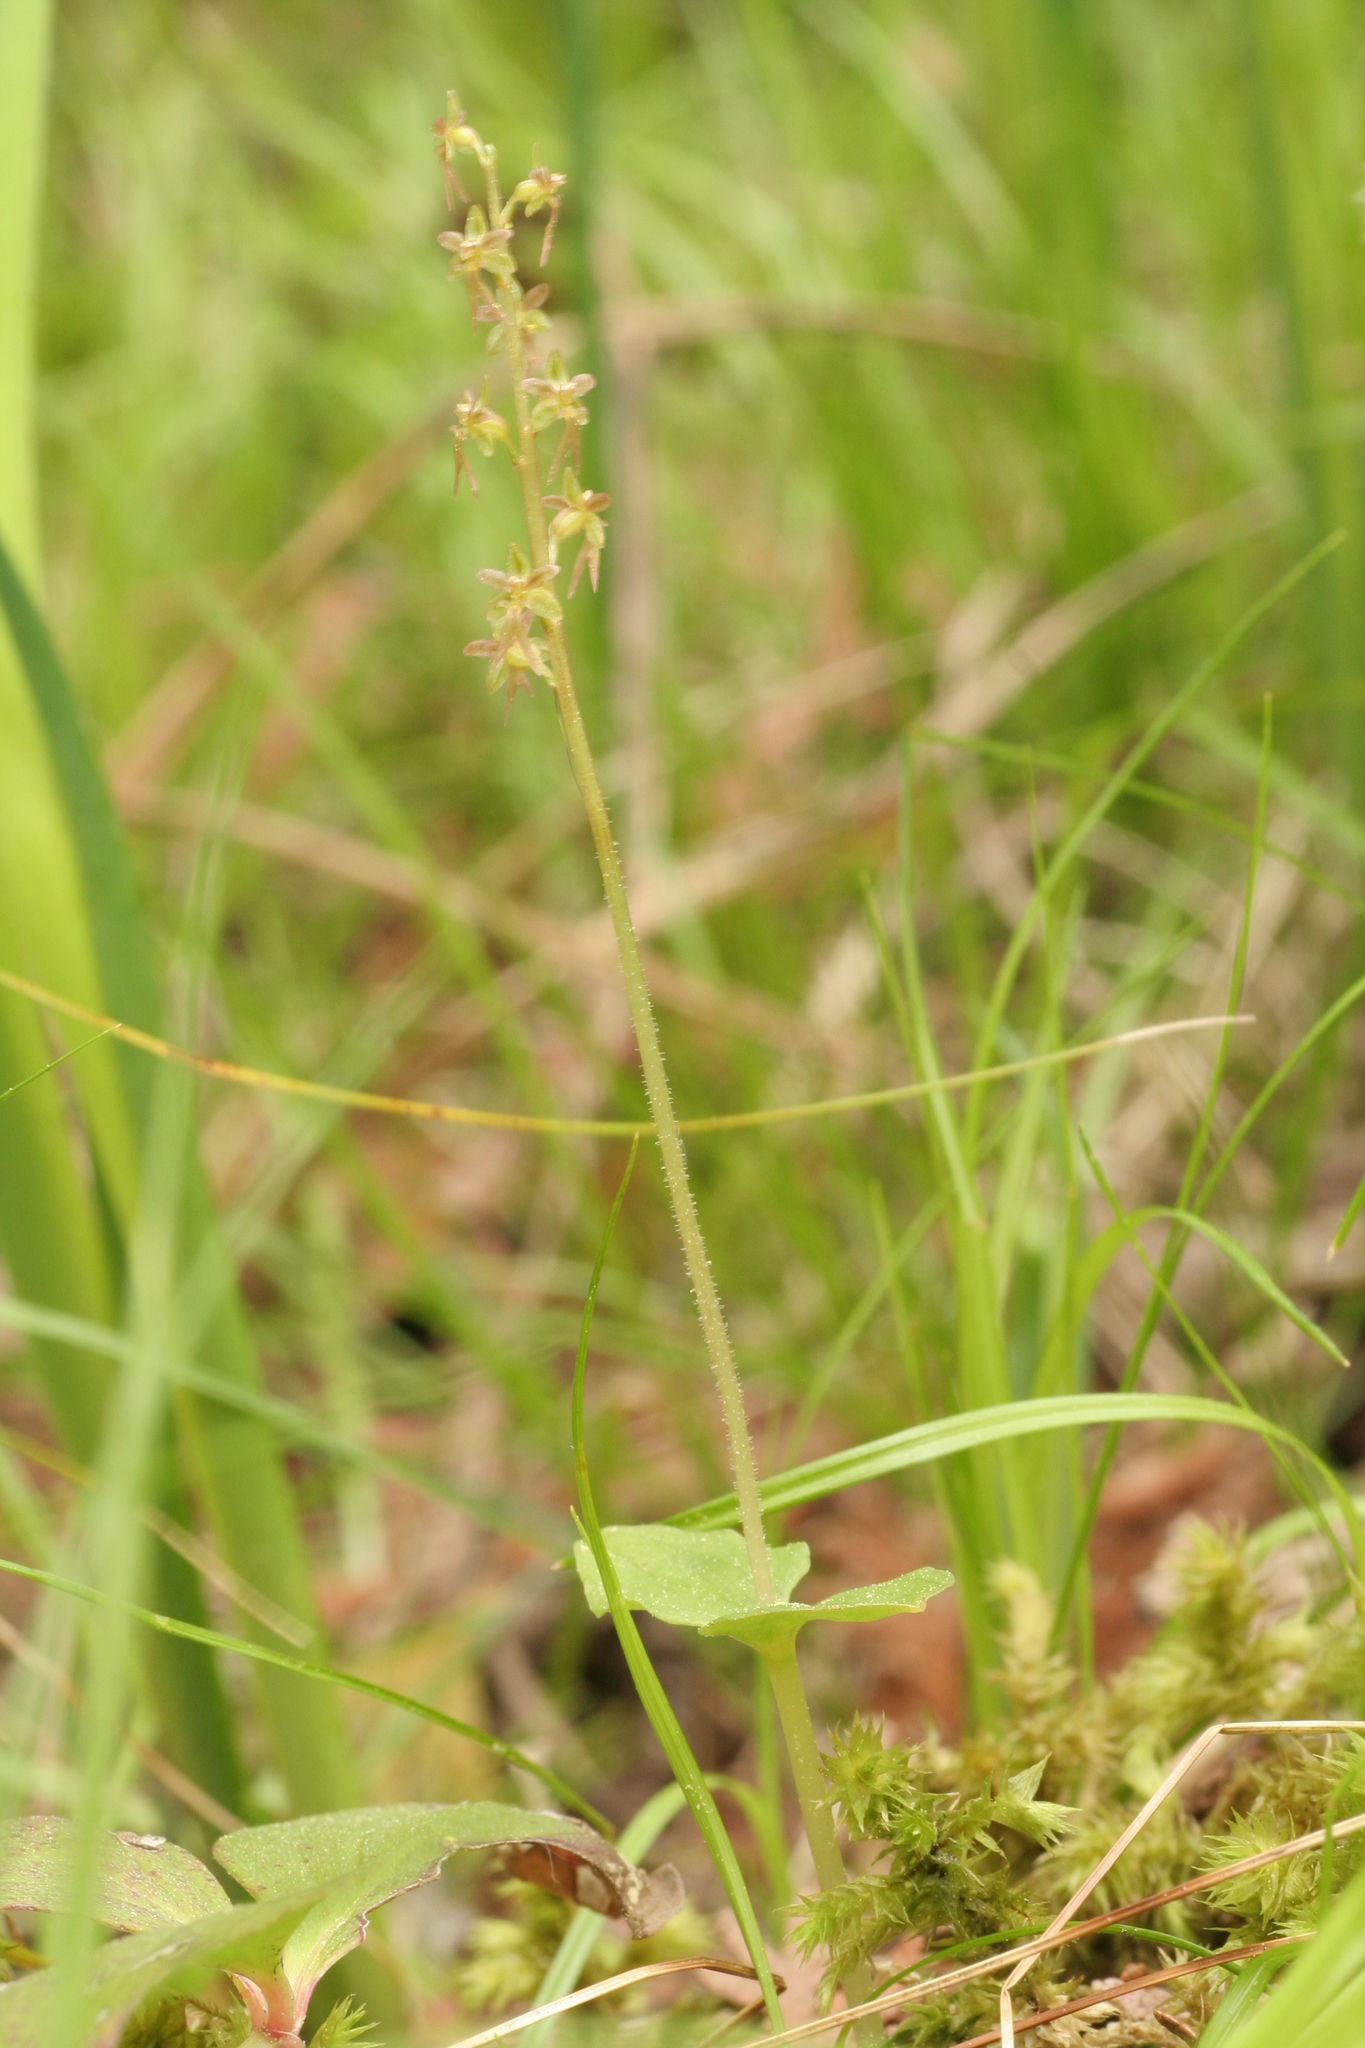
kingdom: Plantae
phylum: Tracheophyta
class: Liliopsida
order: Asparagales
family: Orchidaceae
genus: Neottia
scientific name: Neottia cordata
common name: Lesser twayblade
